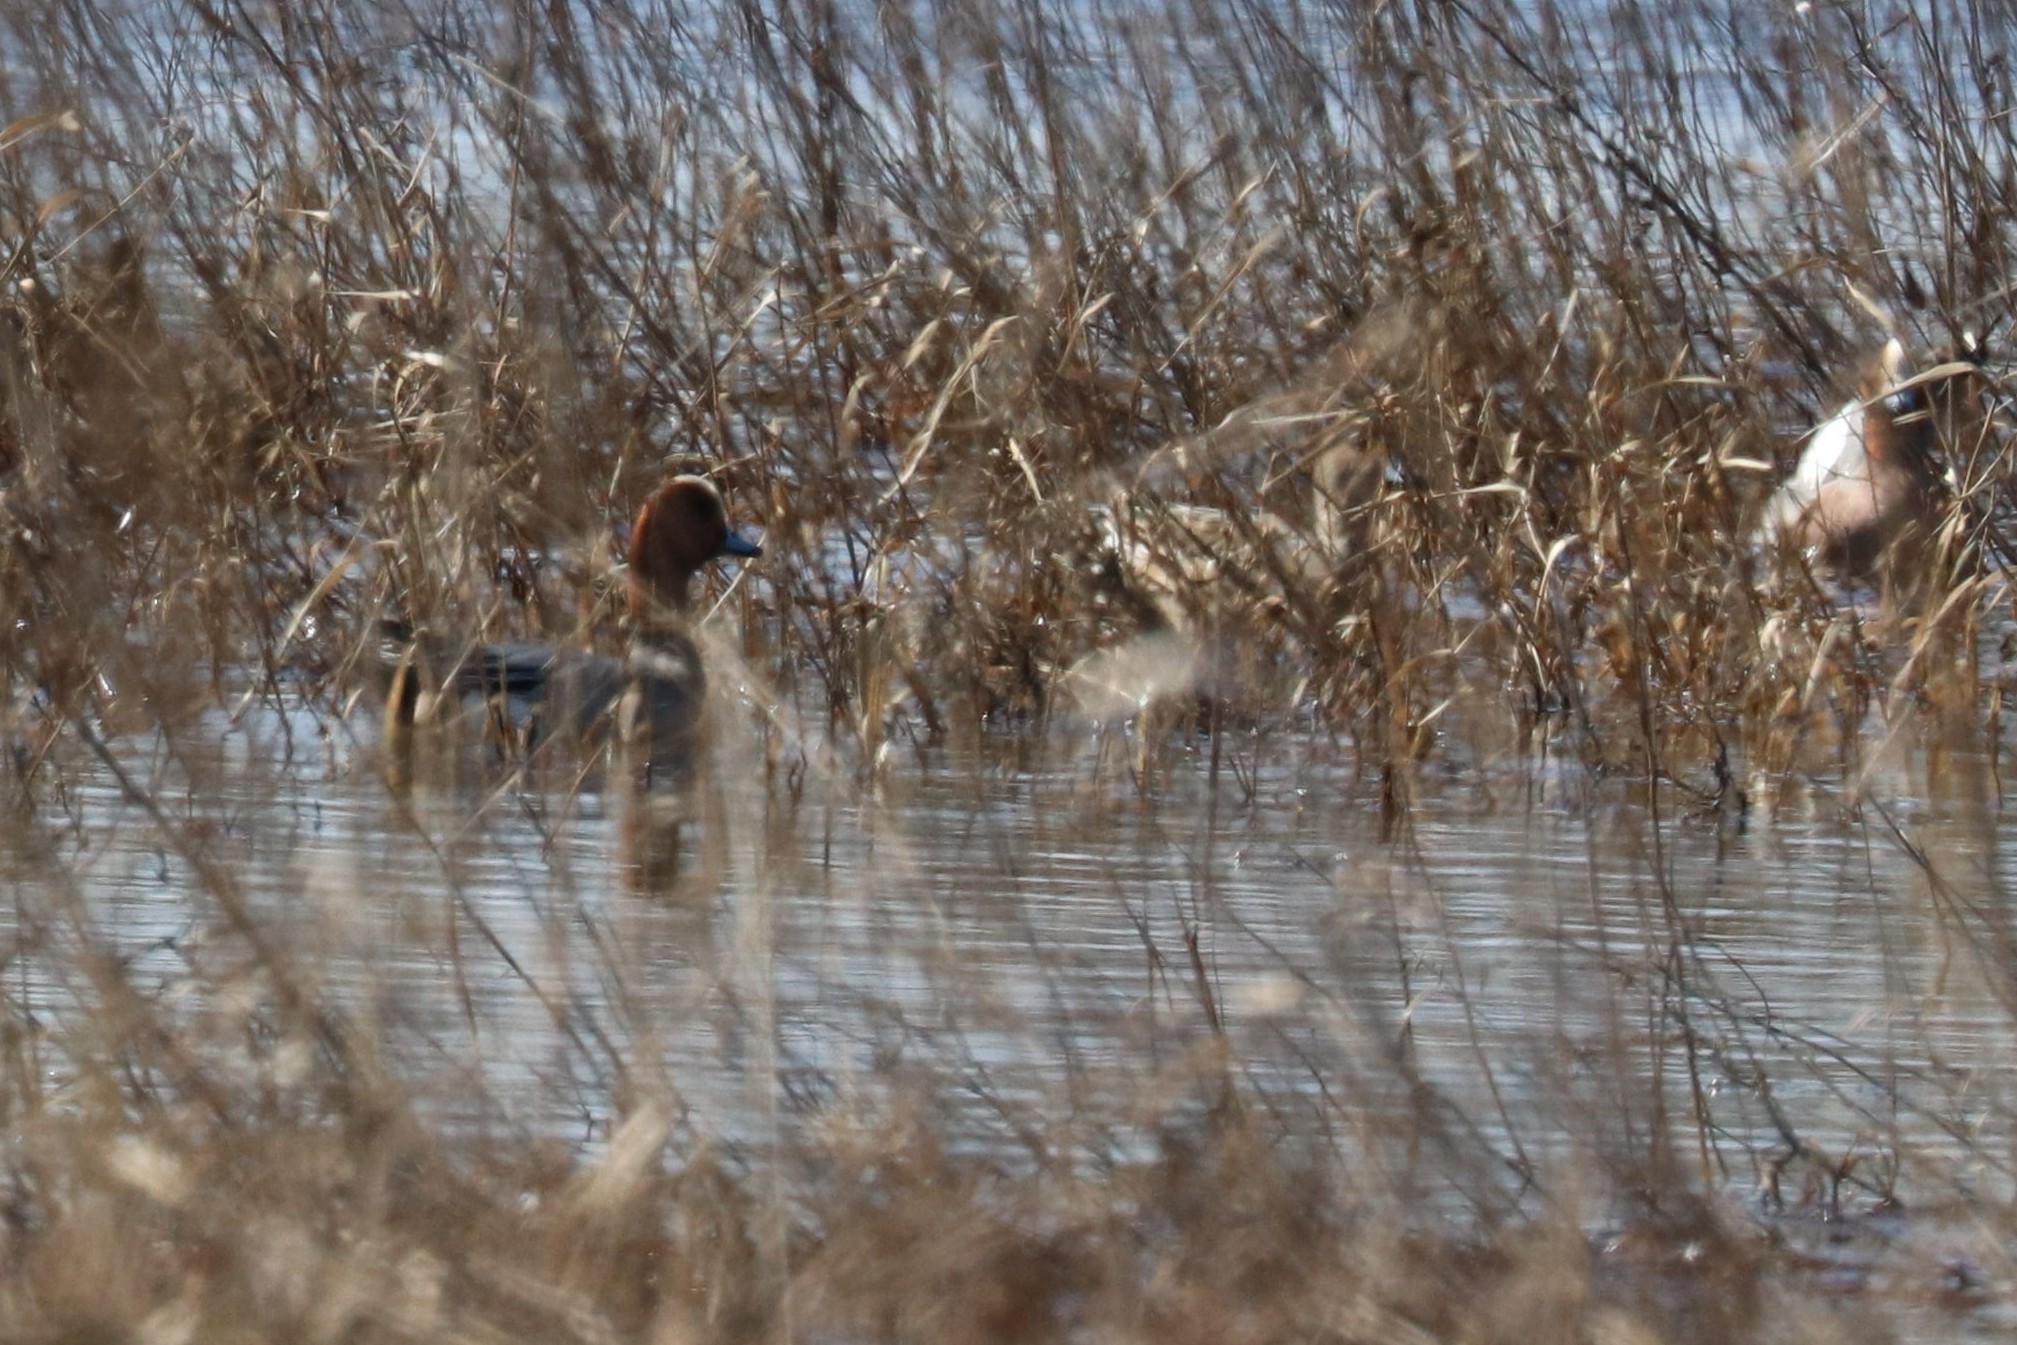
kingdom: Animalia
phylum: Chordata
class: Aves
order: Anseriformes
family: Anatidae
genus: Mareca
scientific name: Mareca penelope
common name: Eurasian wigeon
